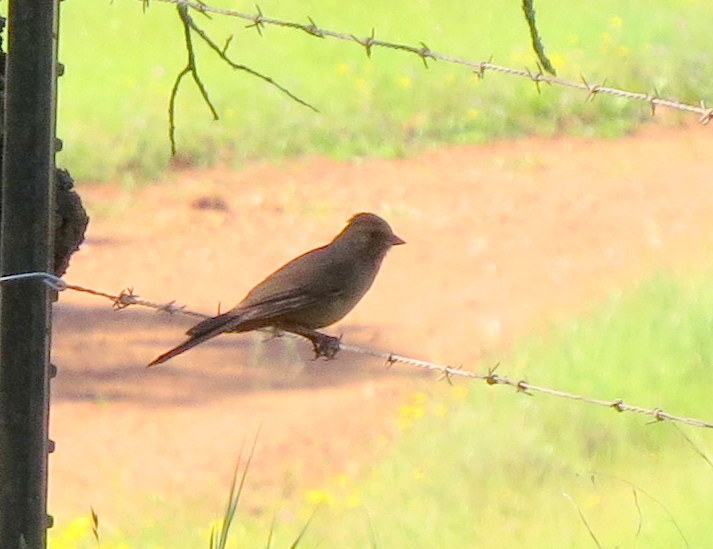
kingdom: Animalia
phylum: Chordata
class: Aves
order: Passeriformes
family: Passerellidae
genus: Melozone
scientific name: Melozone crissalis
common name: California towhee
